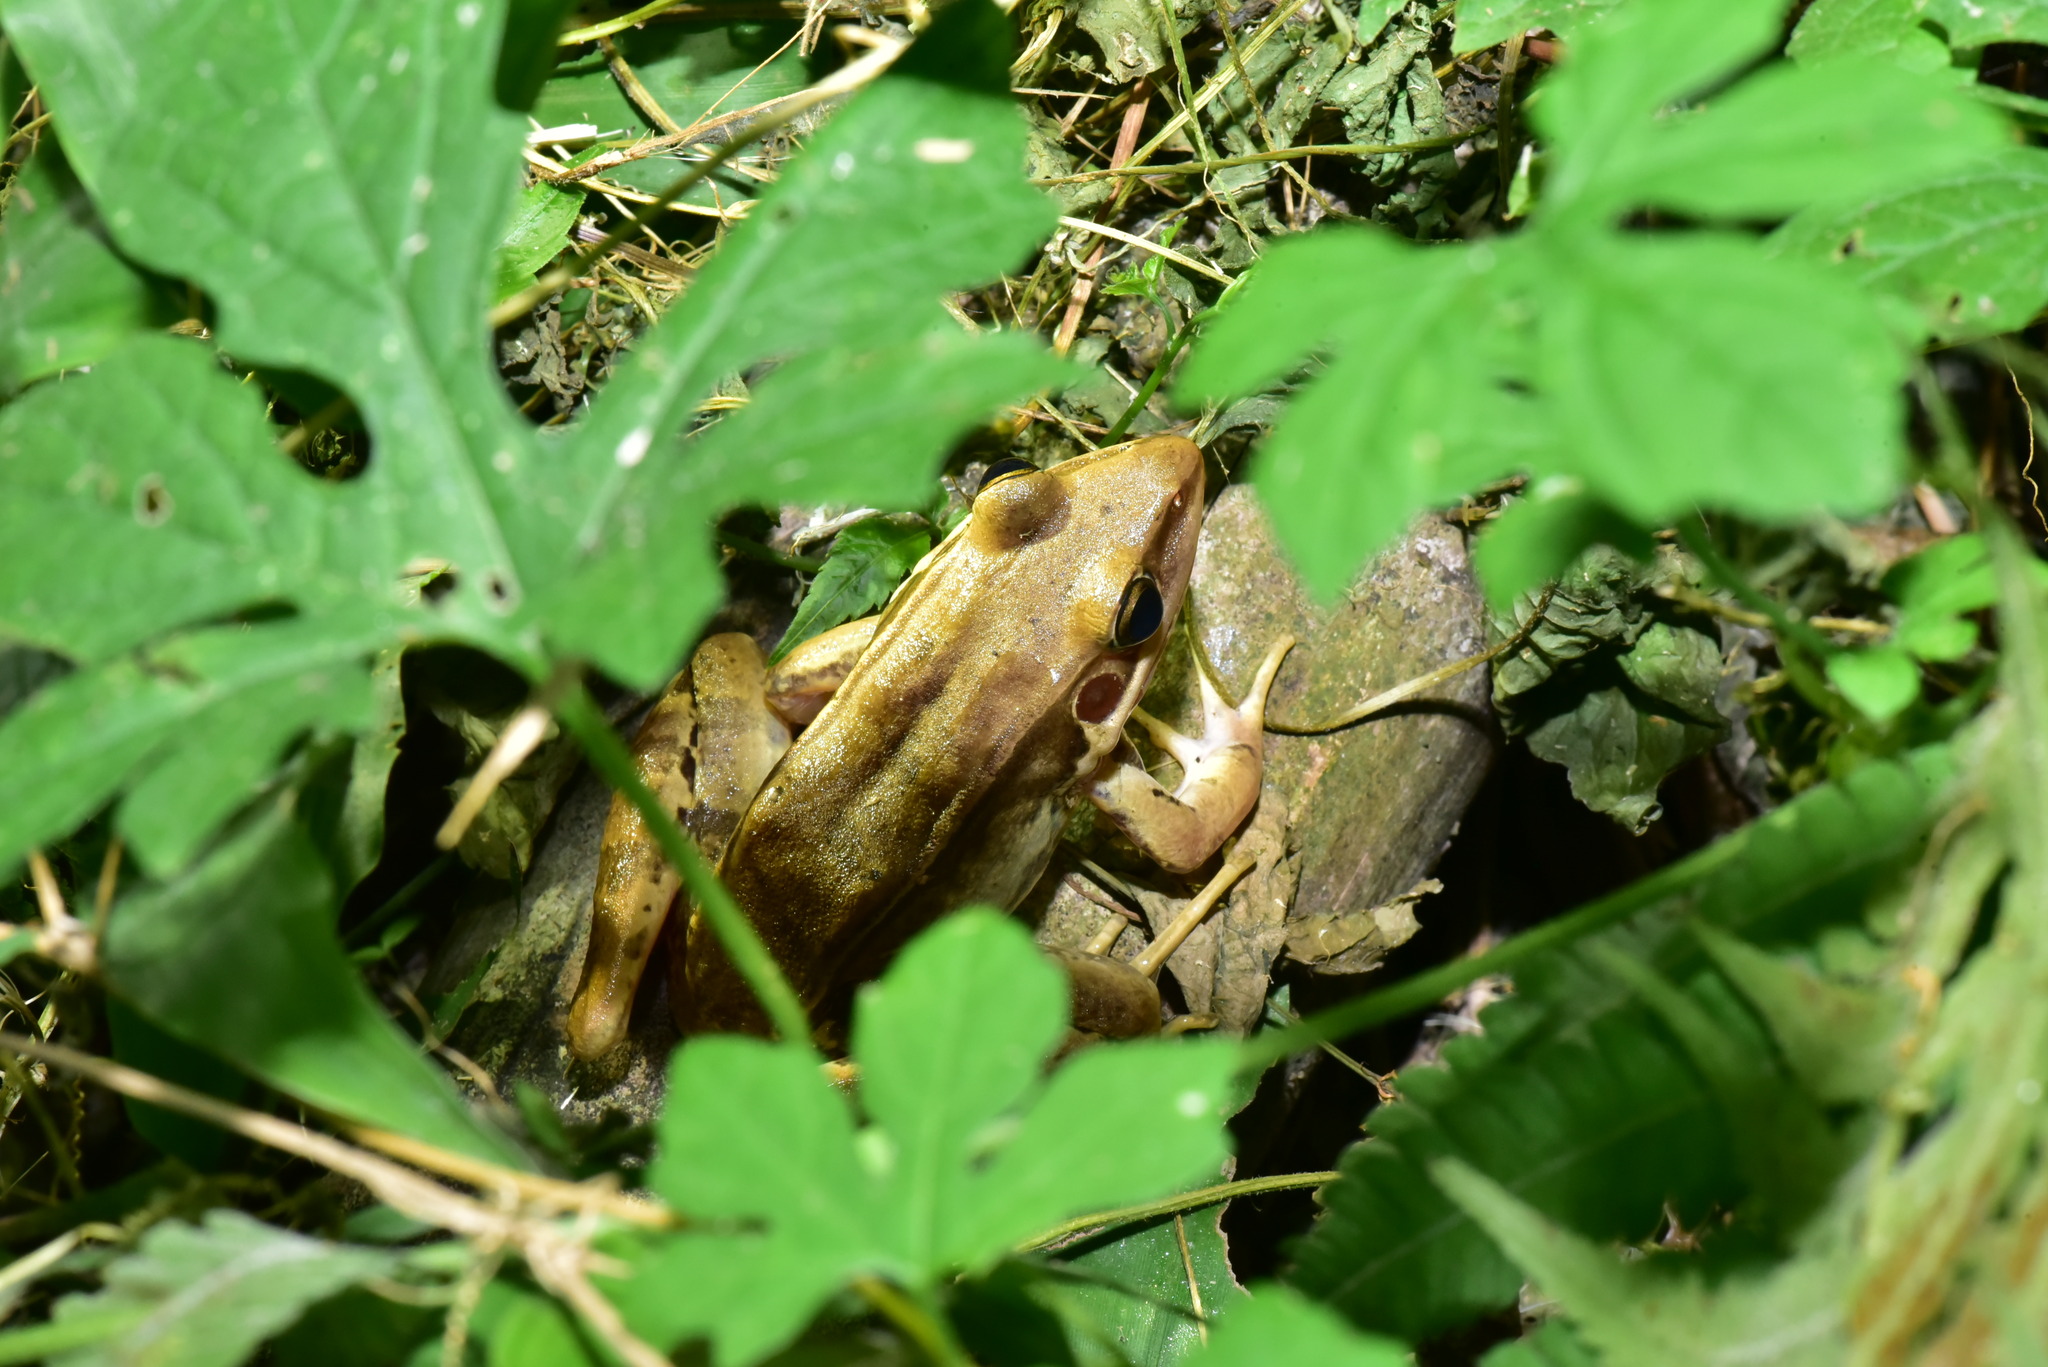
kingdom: Animalia
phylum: Chordata
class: Amphibia
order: Anura
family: Ranidae
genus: Sylvirana
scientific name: Sylvirana guentheri
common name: Guenther's amoy frog
